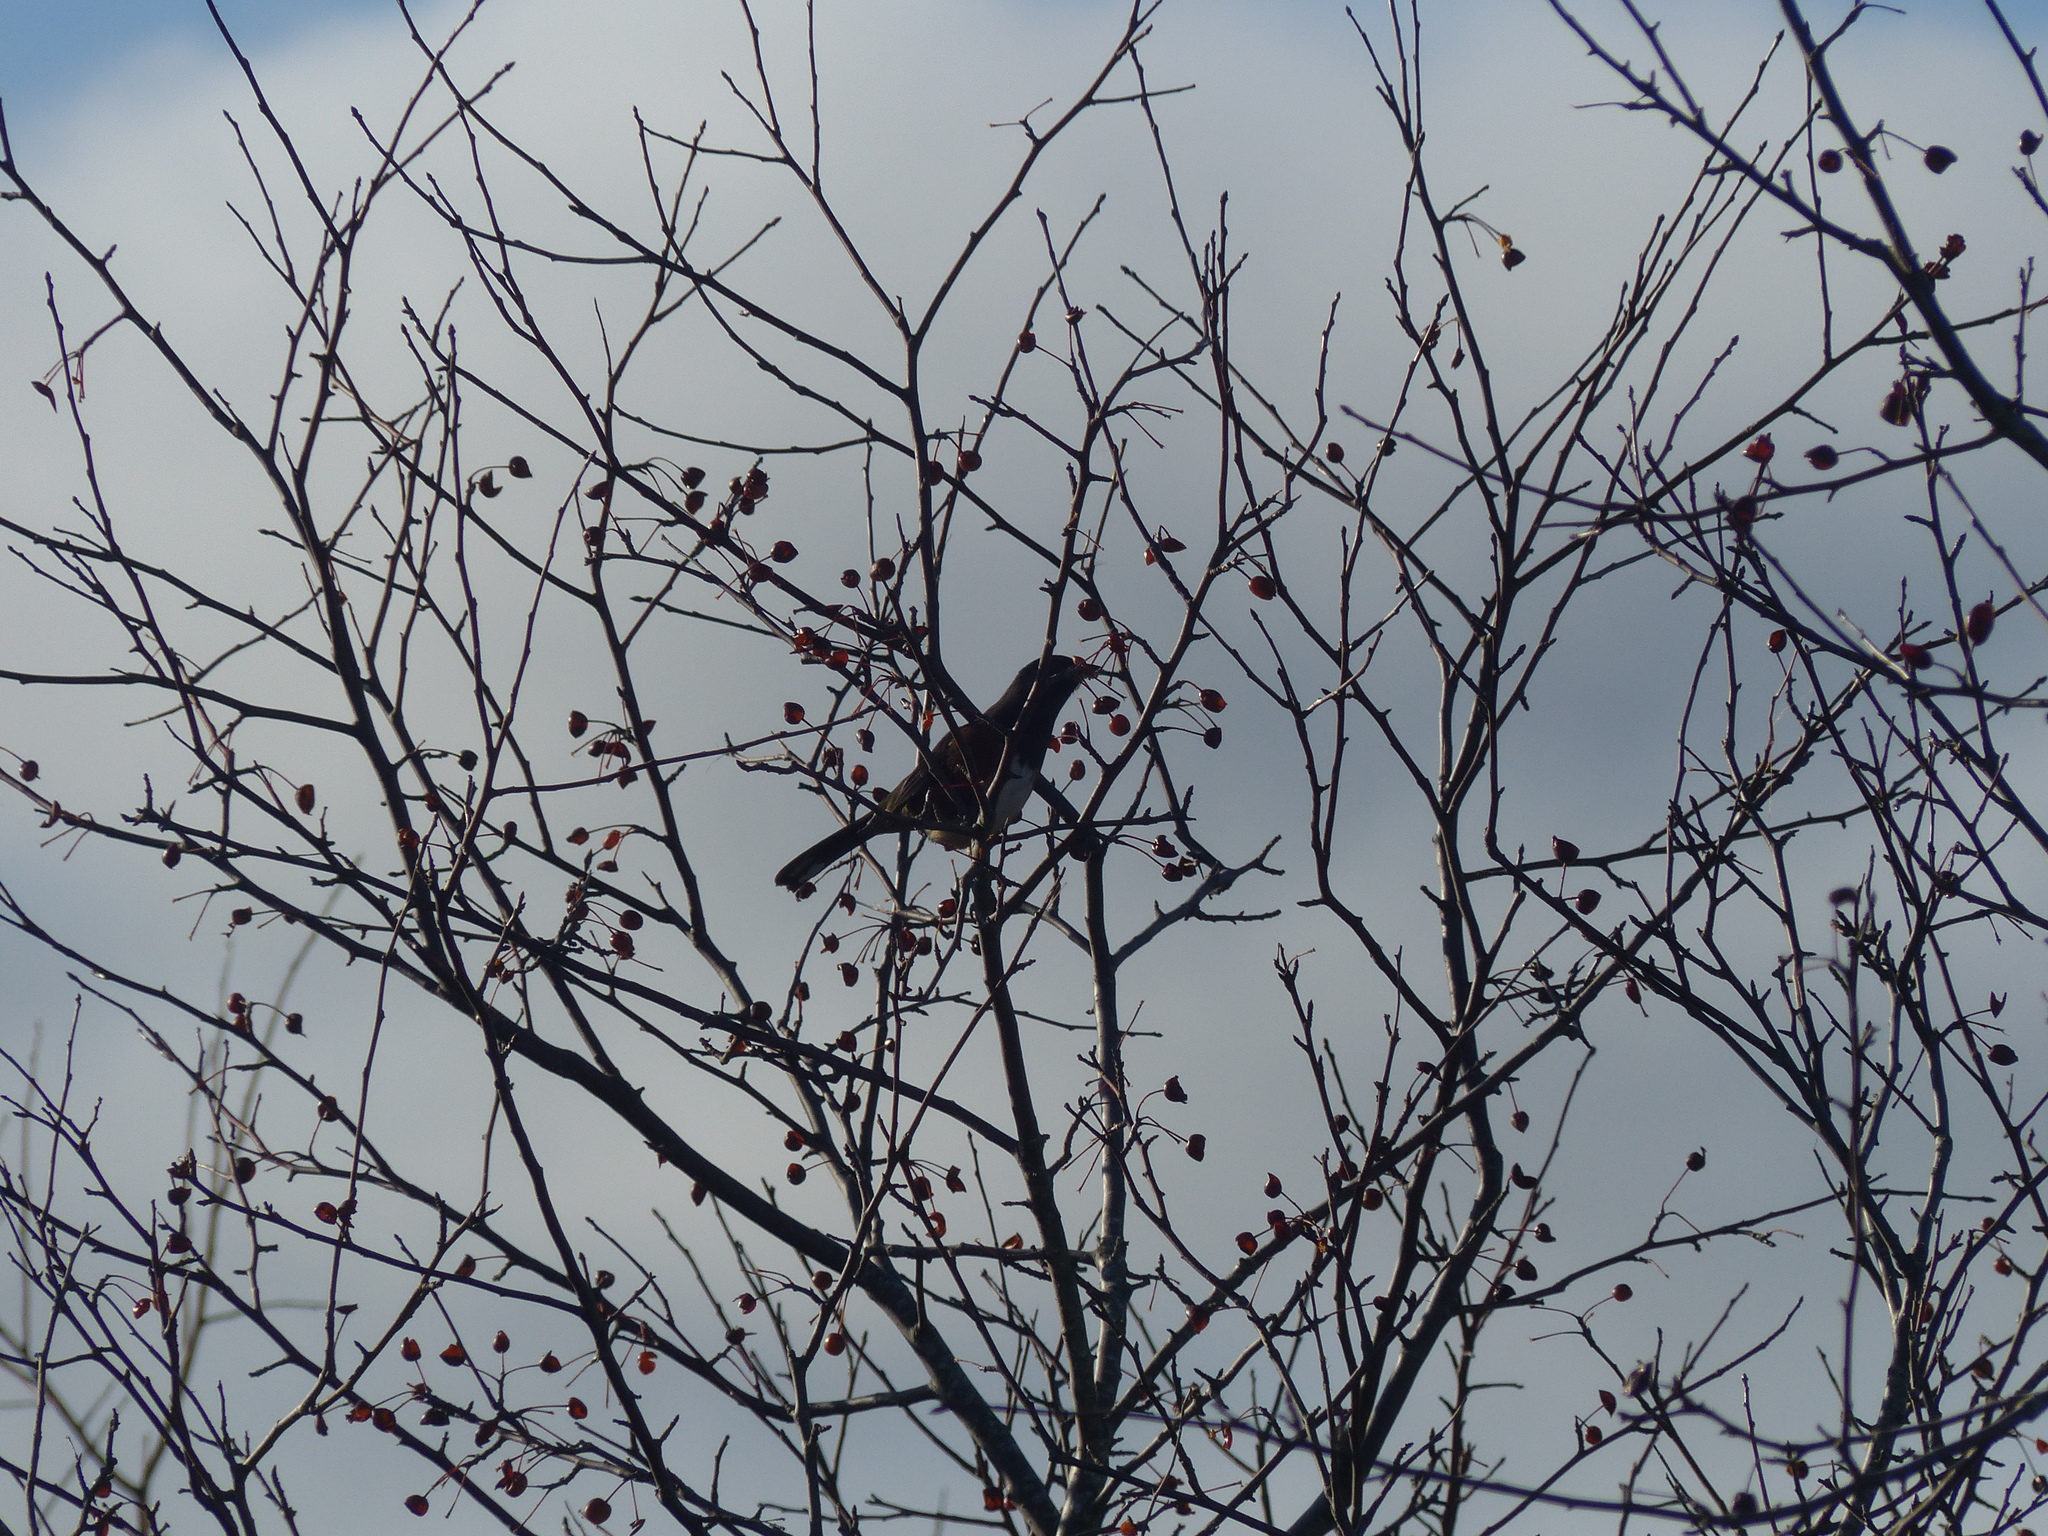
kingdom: Animalia
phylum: Chordata
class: Aves
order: Passeriformes
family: Passerellidae
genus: Pipilo
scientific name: Pipilo maculatus
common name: Spotted towhee
